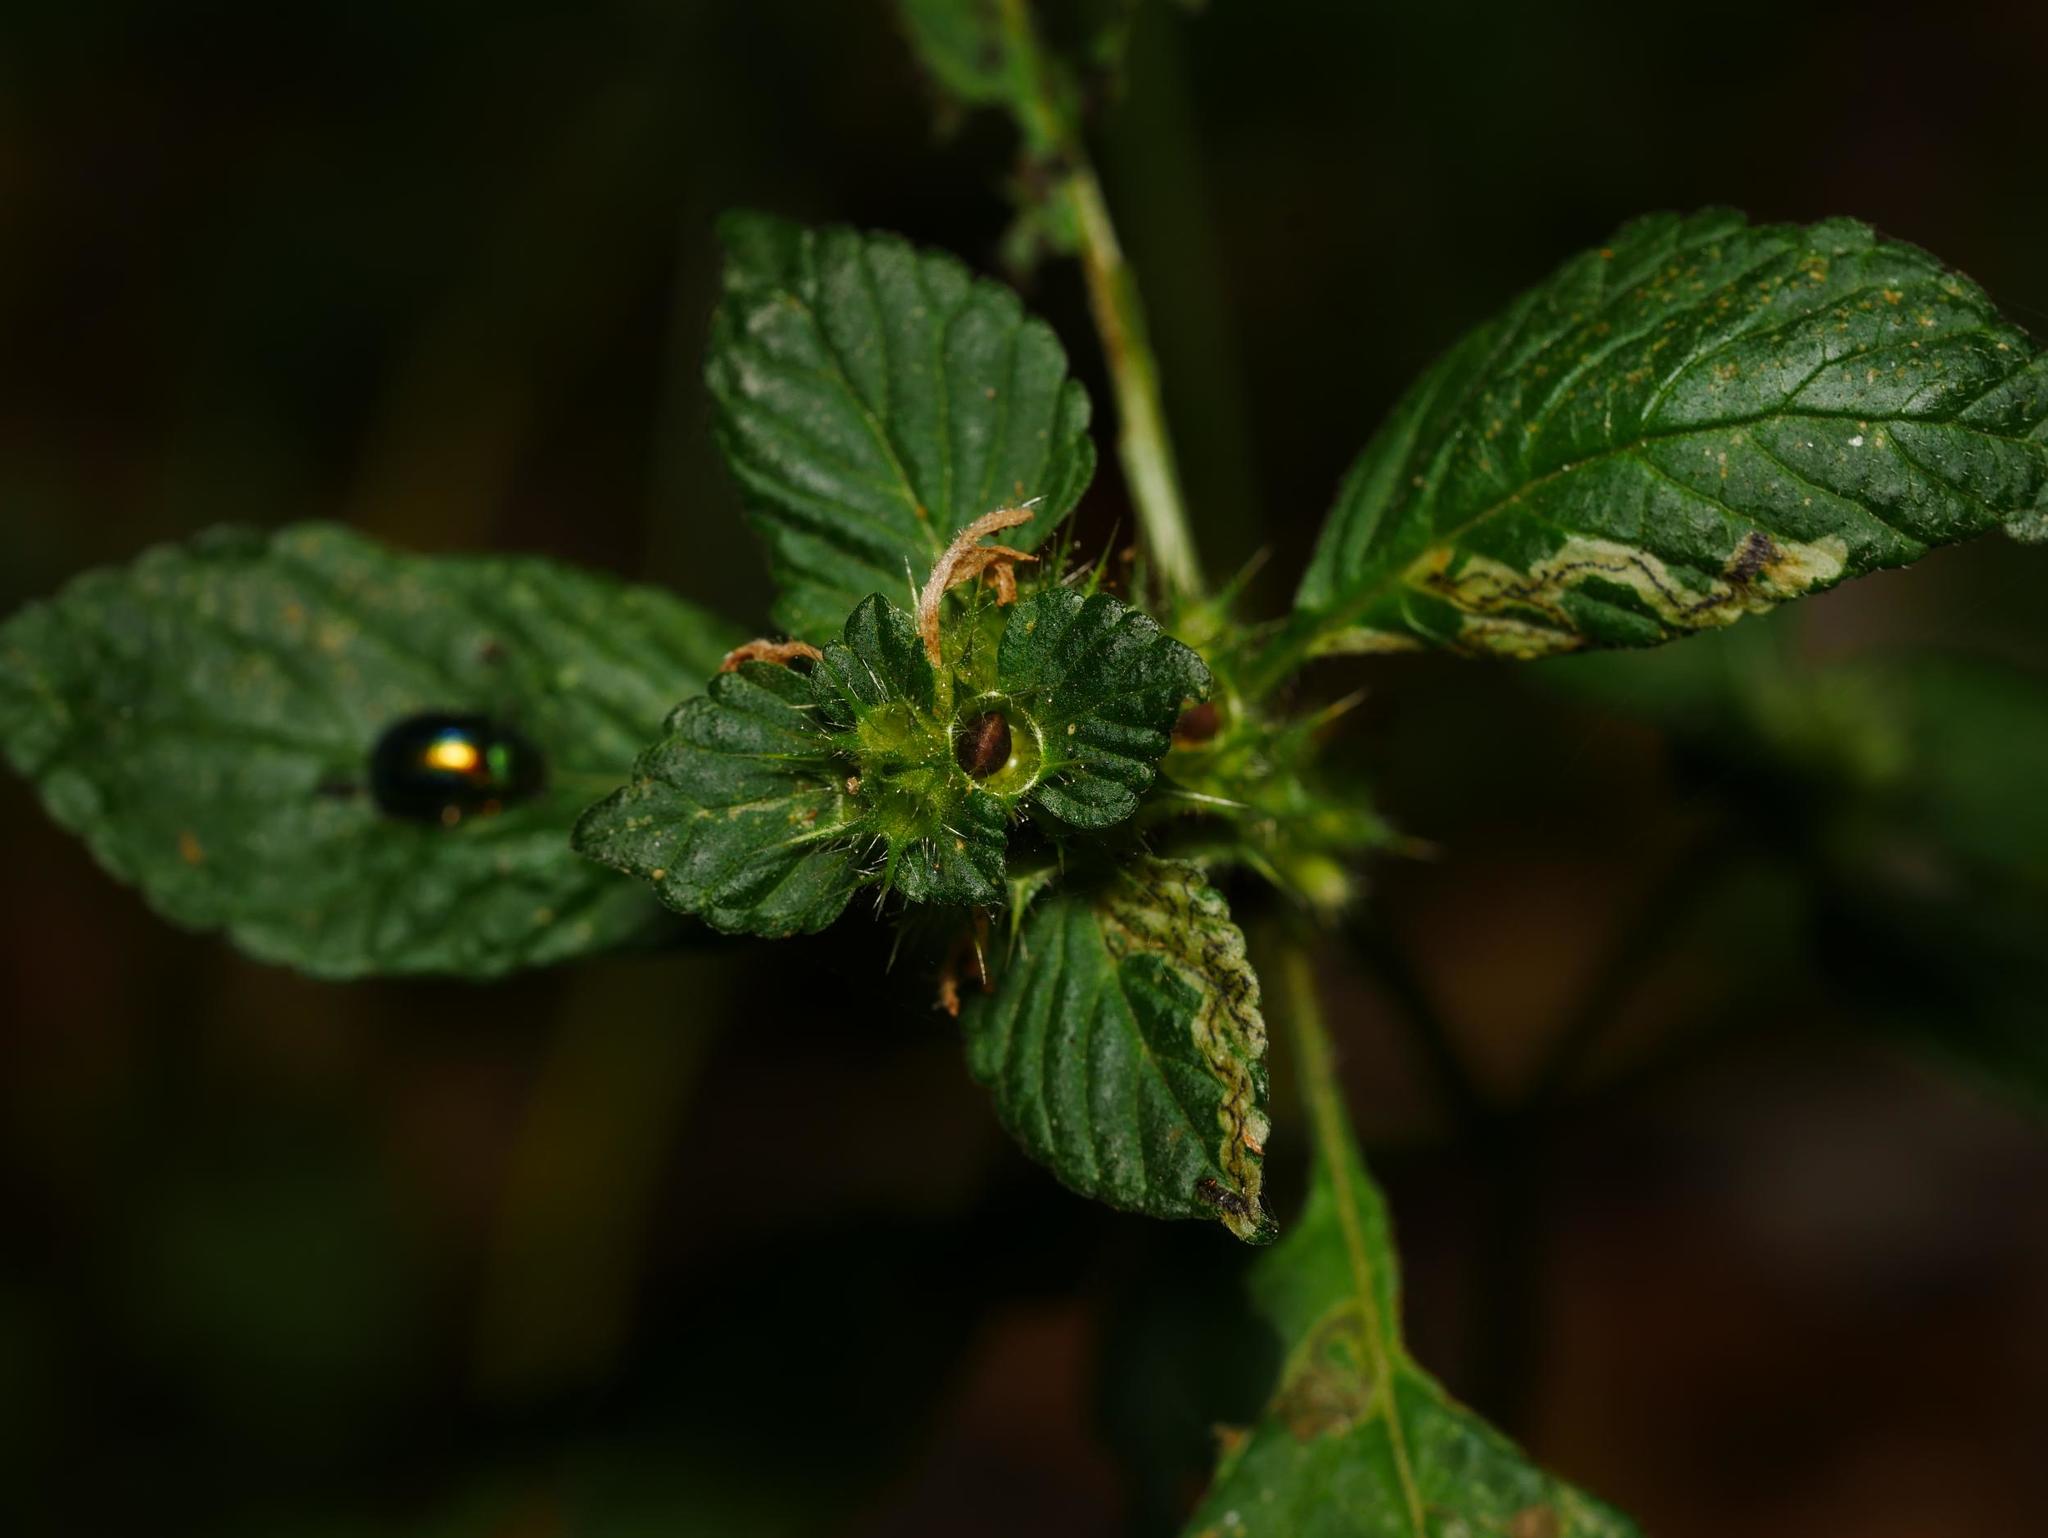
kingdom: Plantae
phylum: Tracheophyta
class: Magnoliopsida
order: Lamiales
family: Lamiaceae
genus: Galeopsis
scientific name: Galeopsis tetrahit
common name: Common hemp-nettle
